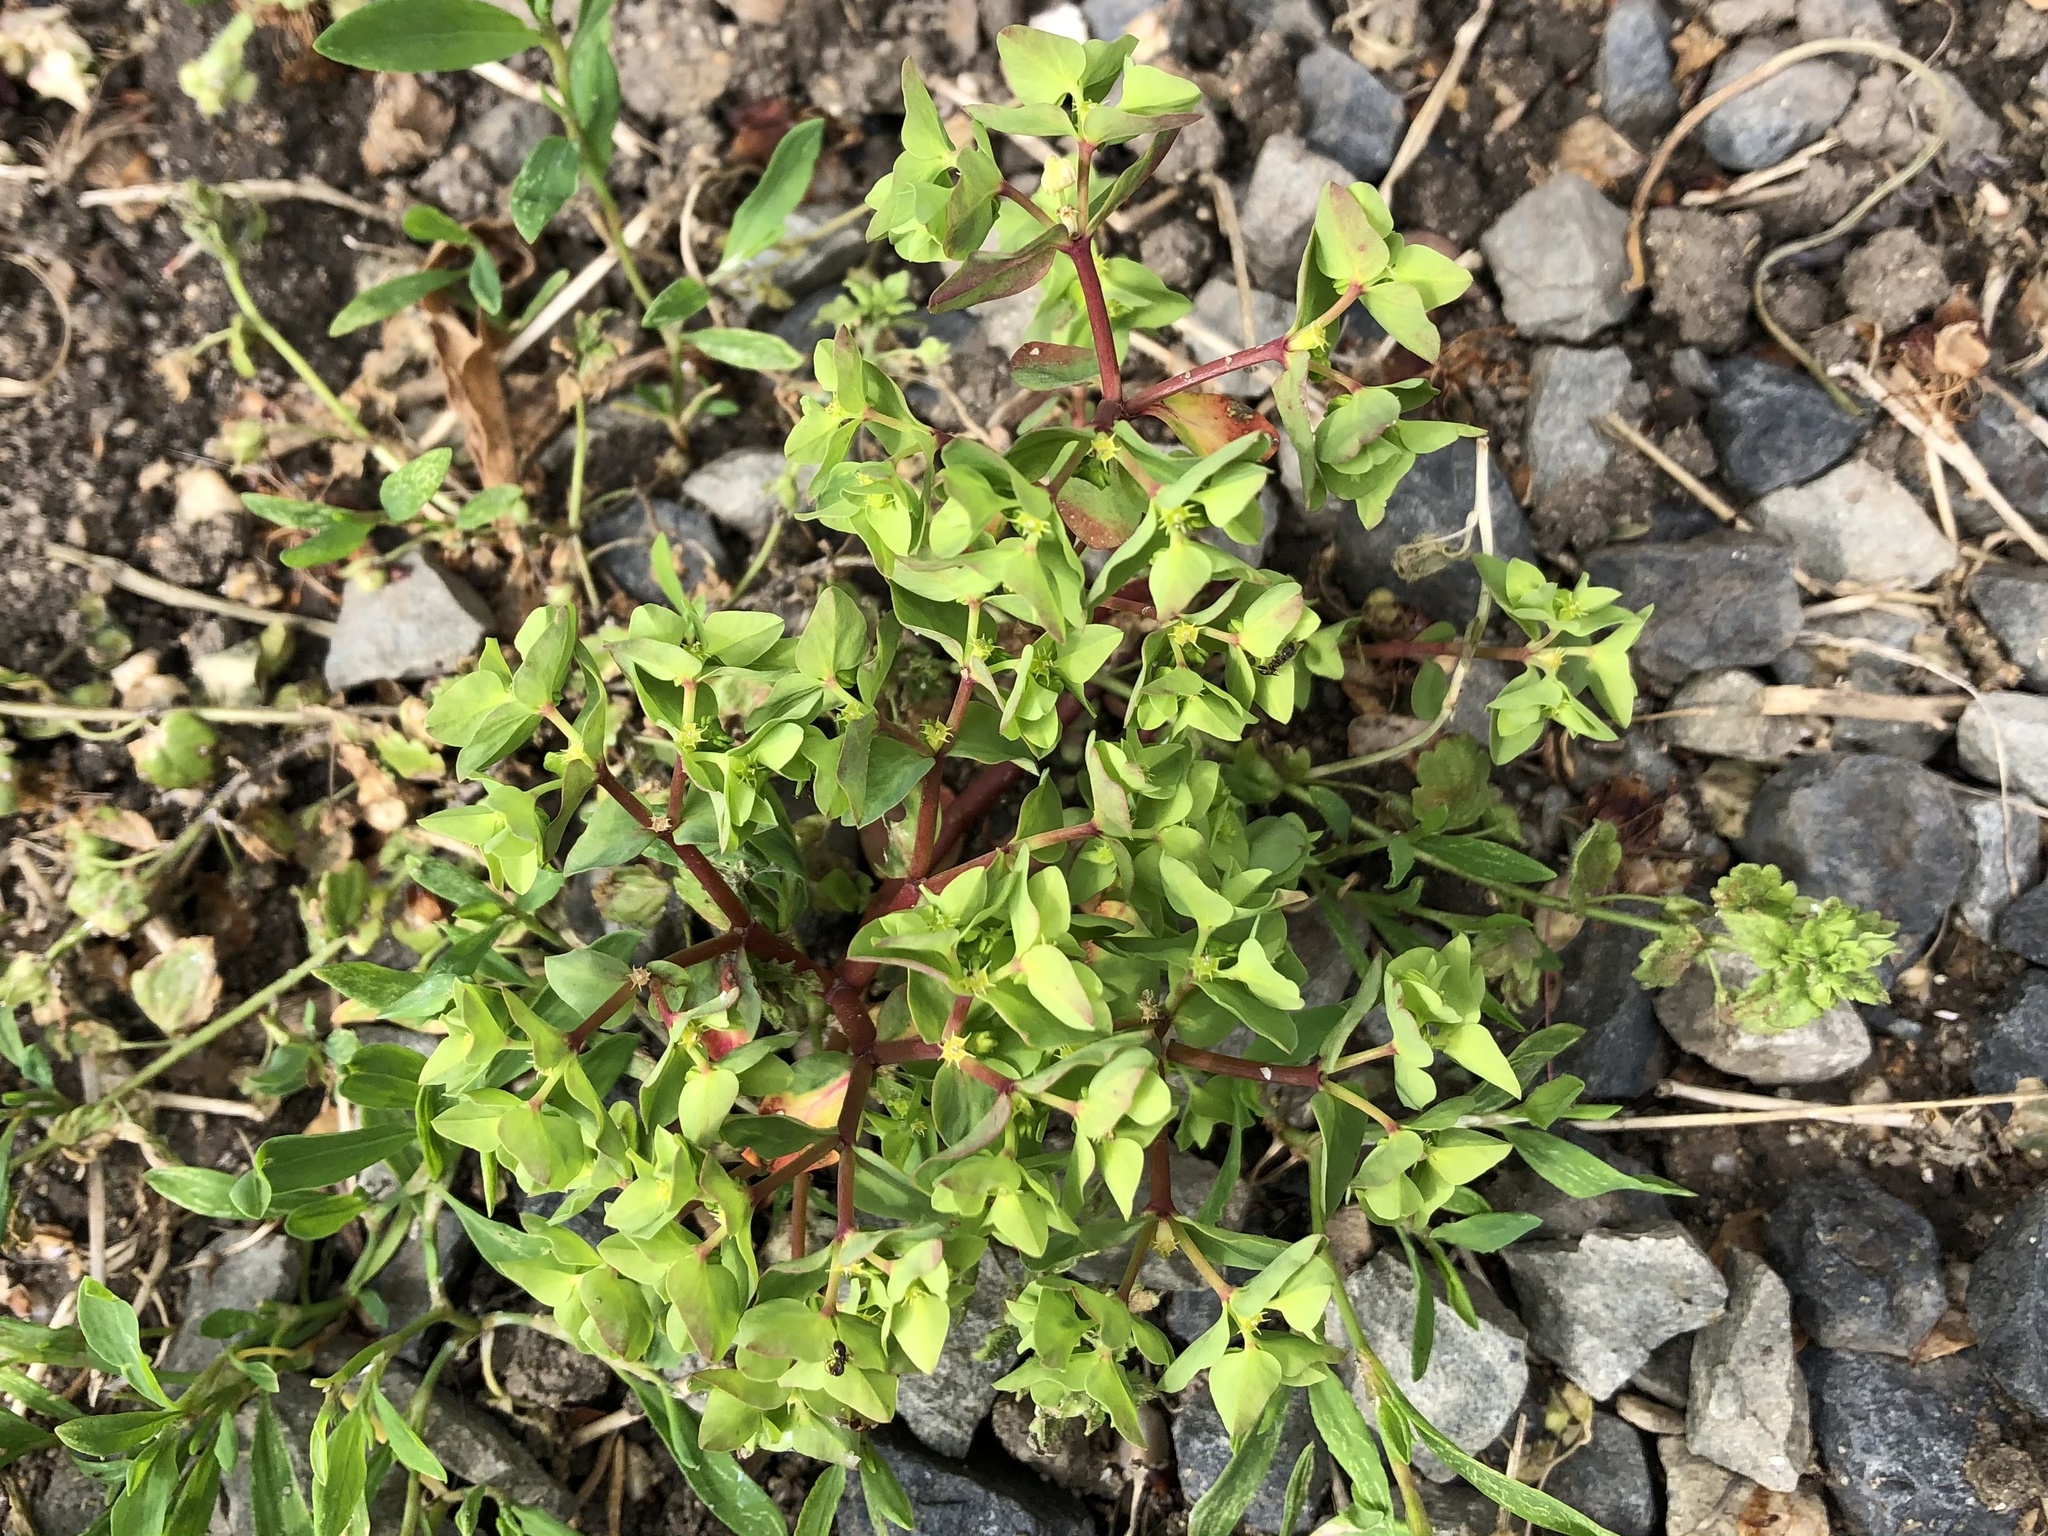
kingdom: Plantae
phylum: Tracheophyta
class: Magnoliopsida
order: Malpighiales
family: Euphorbiaceae
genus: Euphorbia
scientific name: Euphorbia peplus
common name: Petty spurge
